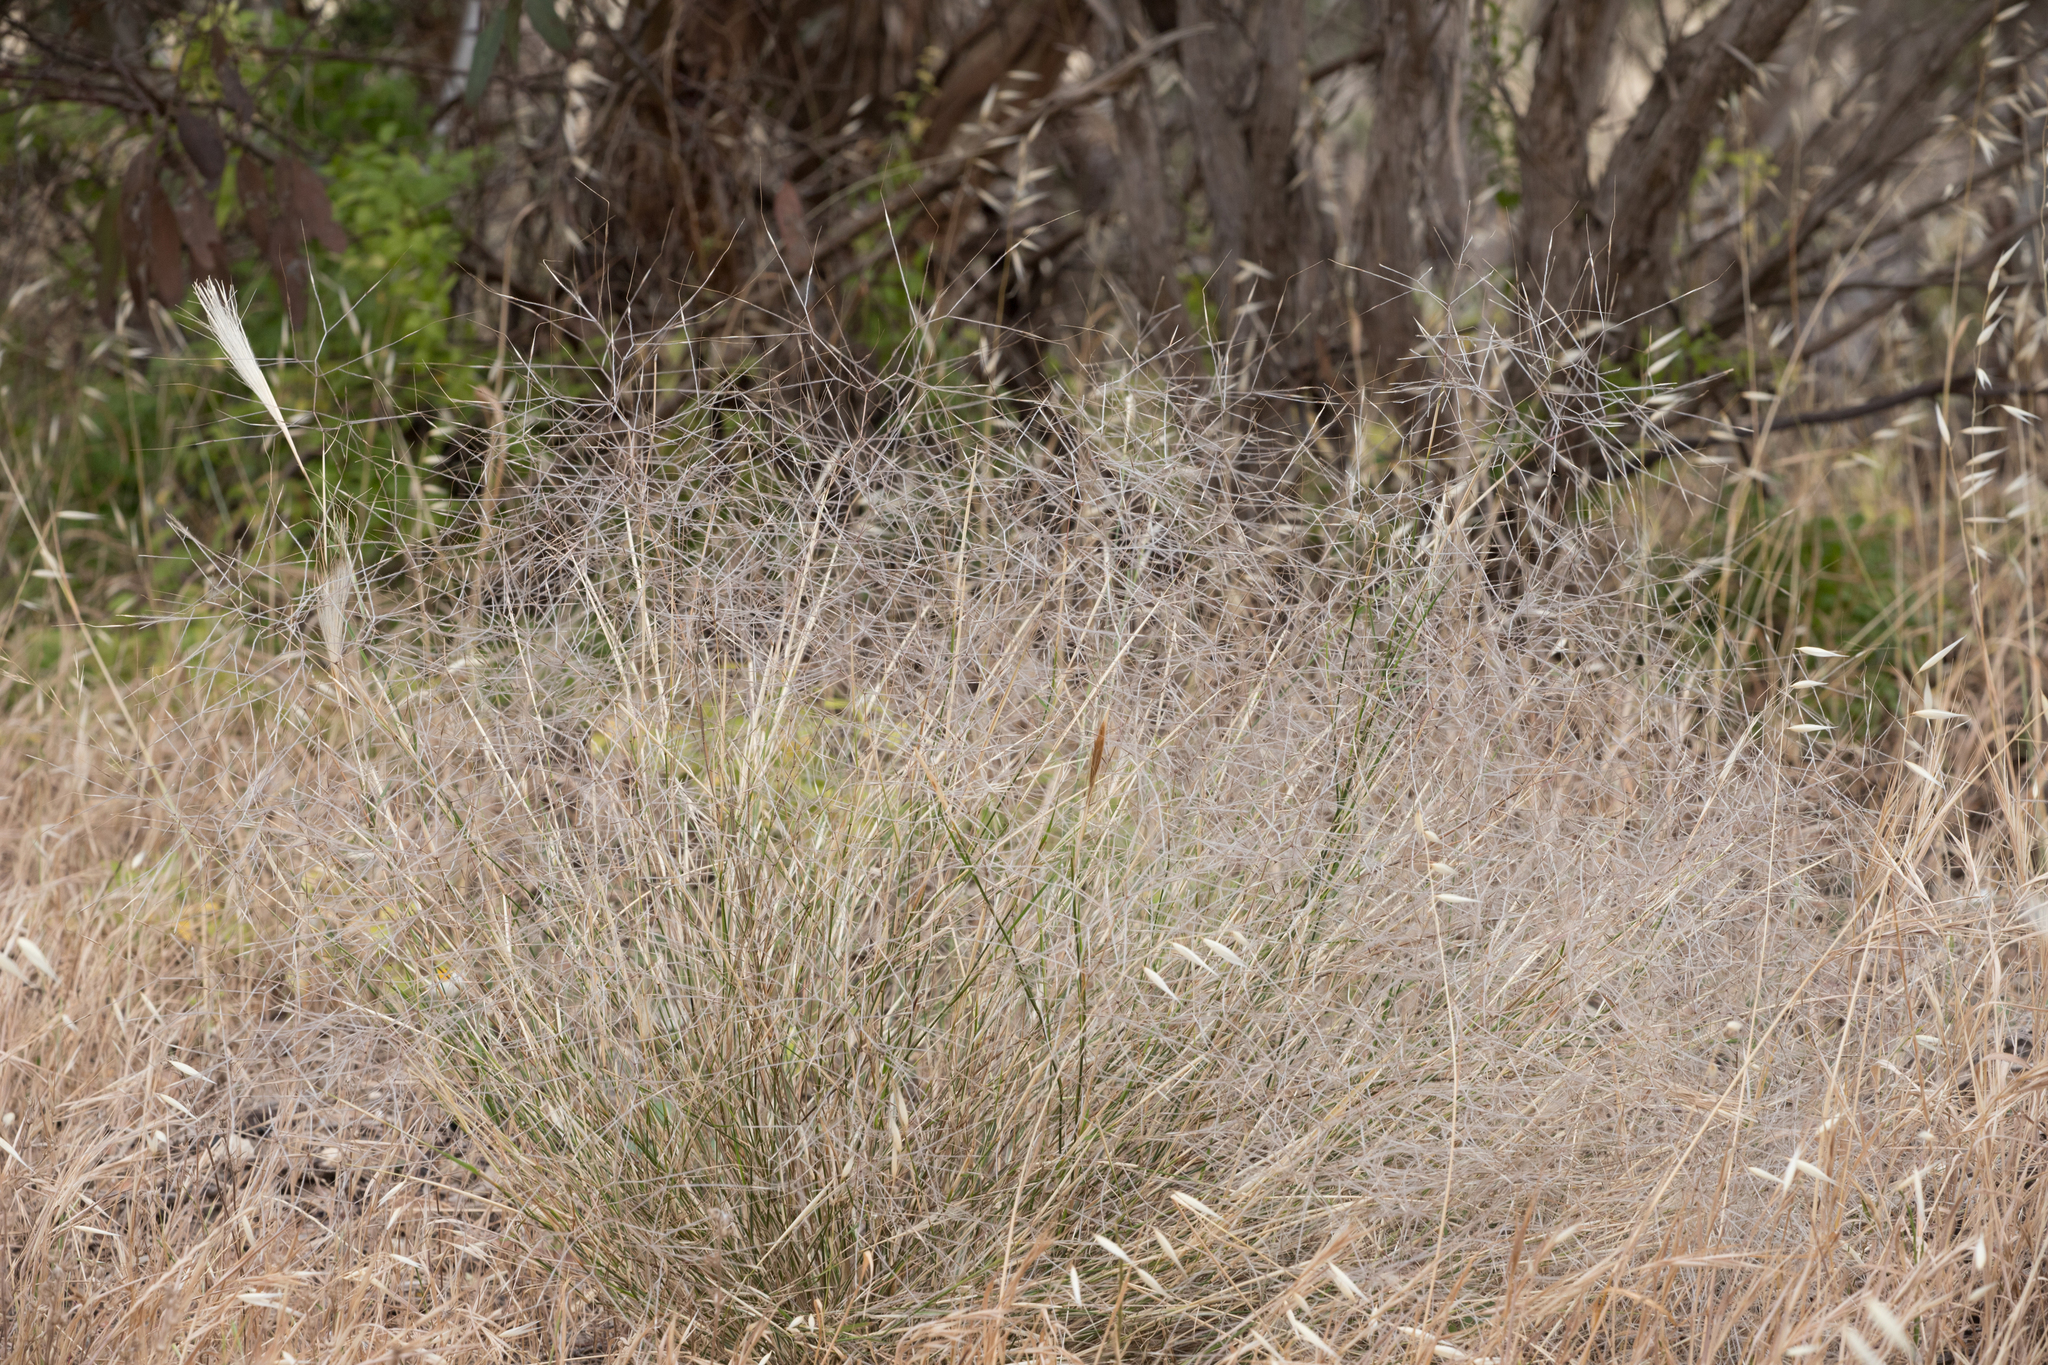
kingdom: Plantae
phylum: Tracheophyta
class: Liliopsida
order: Poales
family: Poaceae
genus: Austrostipa
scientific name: Austrostipa elegantissima
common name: Feather spear grass
